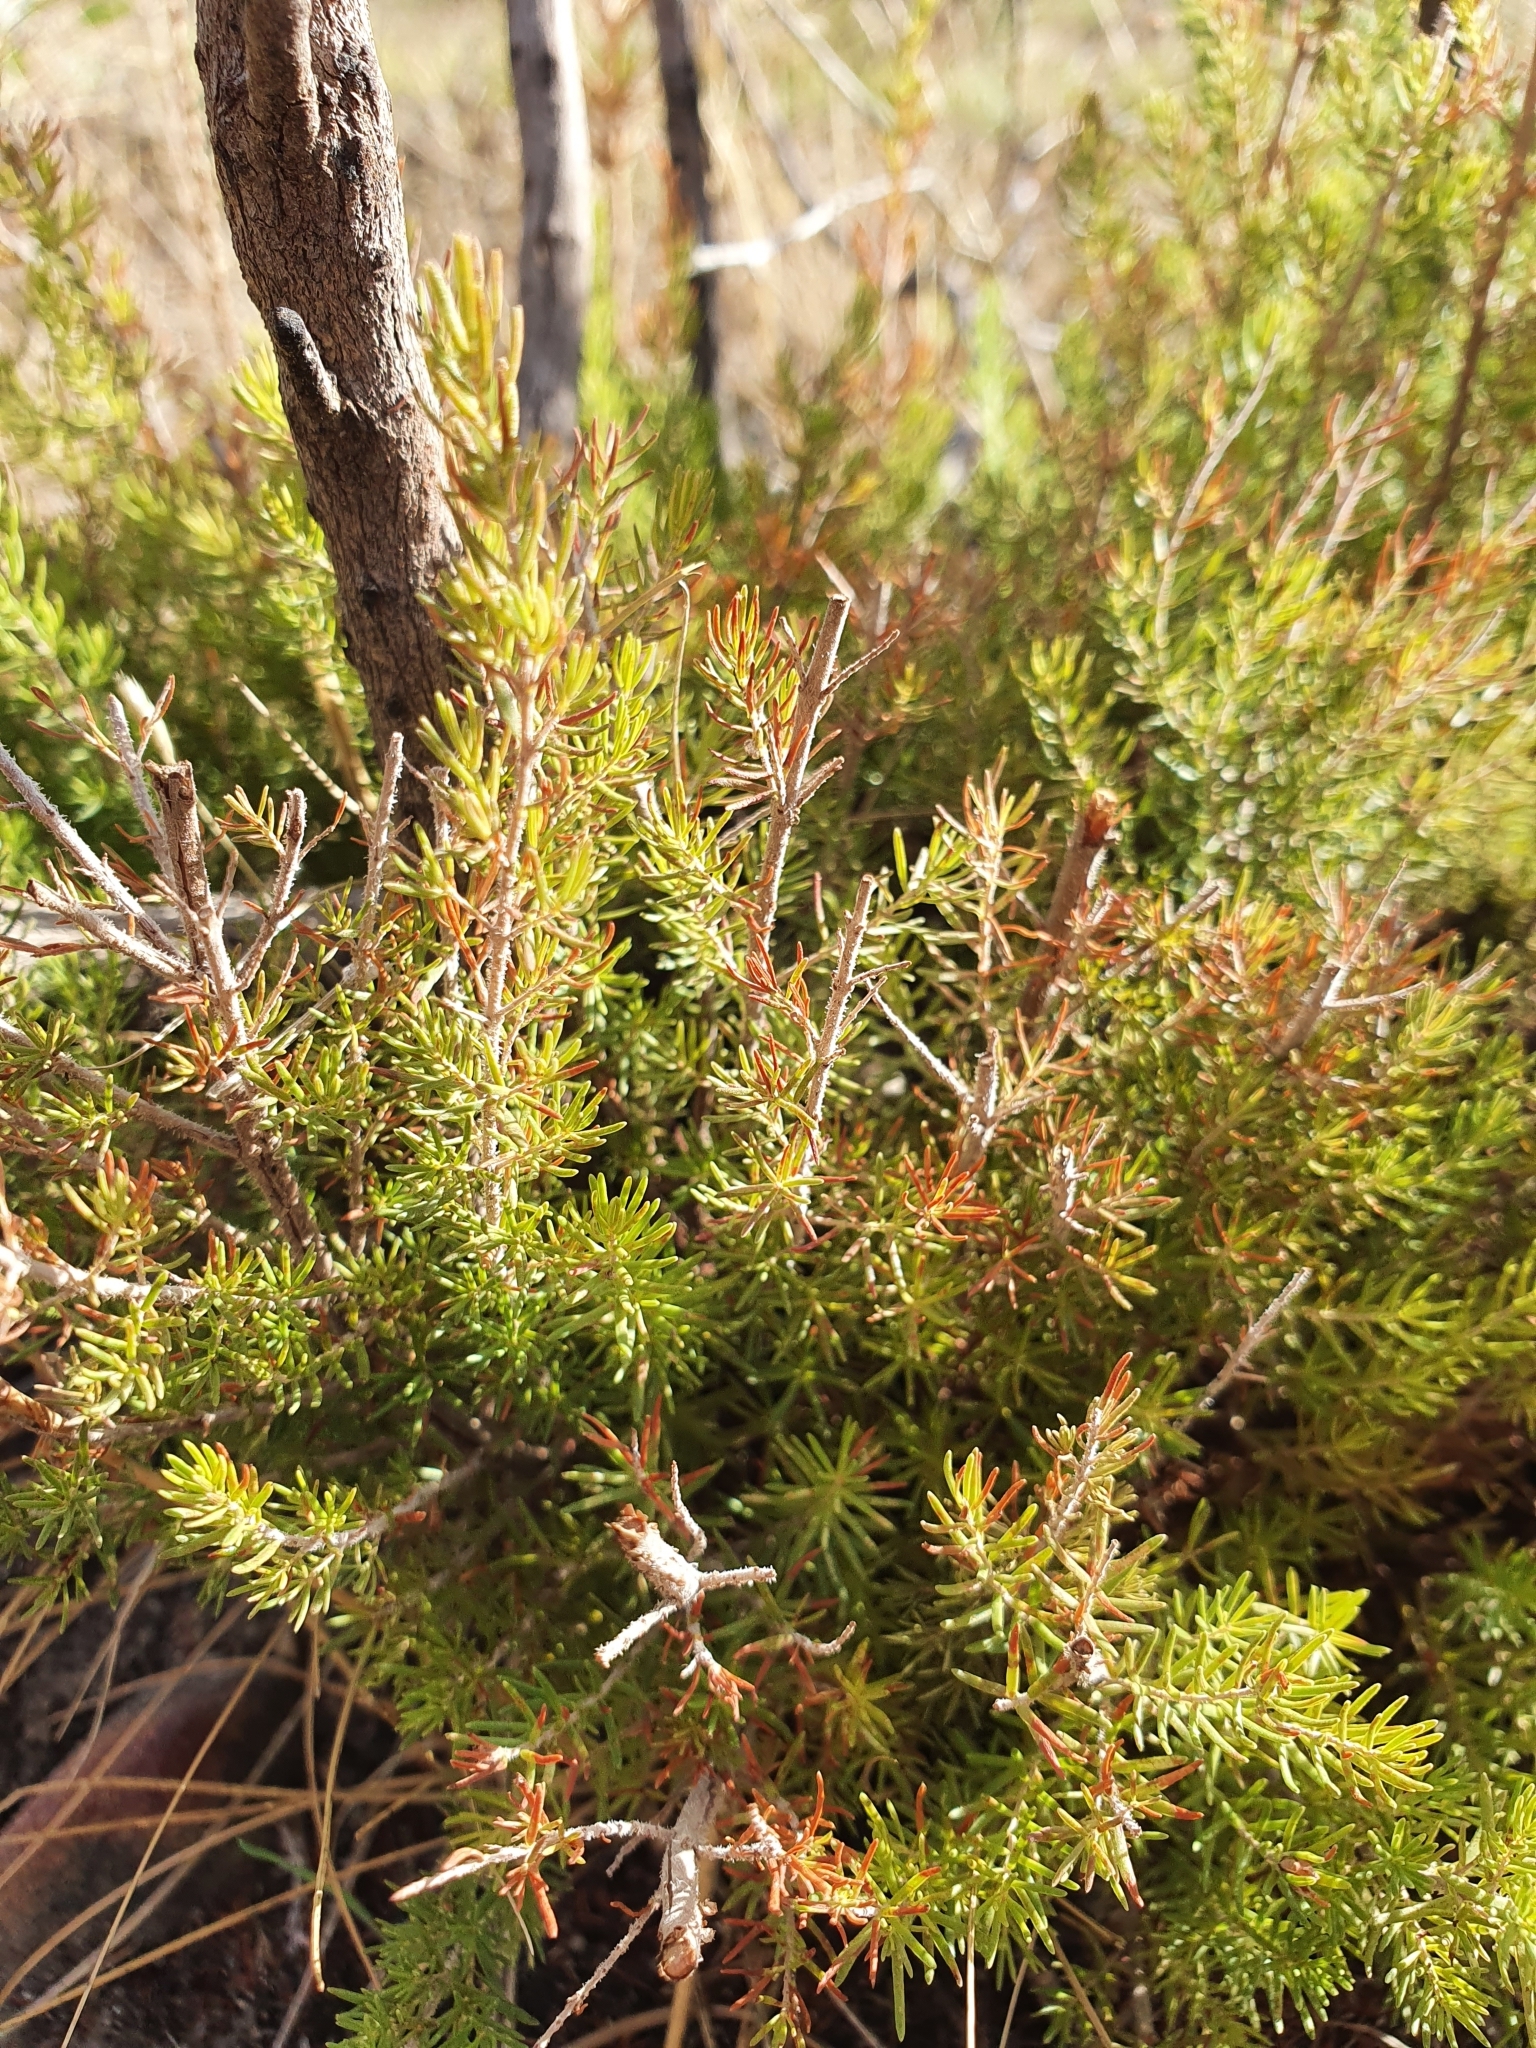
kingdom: Plantae
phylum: Tracheophyta
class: Magnoliopsida
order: Ericales
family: Ericaceae
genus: Erica
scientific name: Erica arborea
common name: Tree heath
